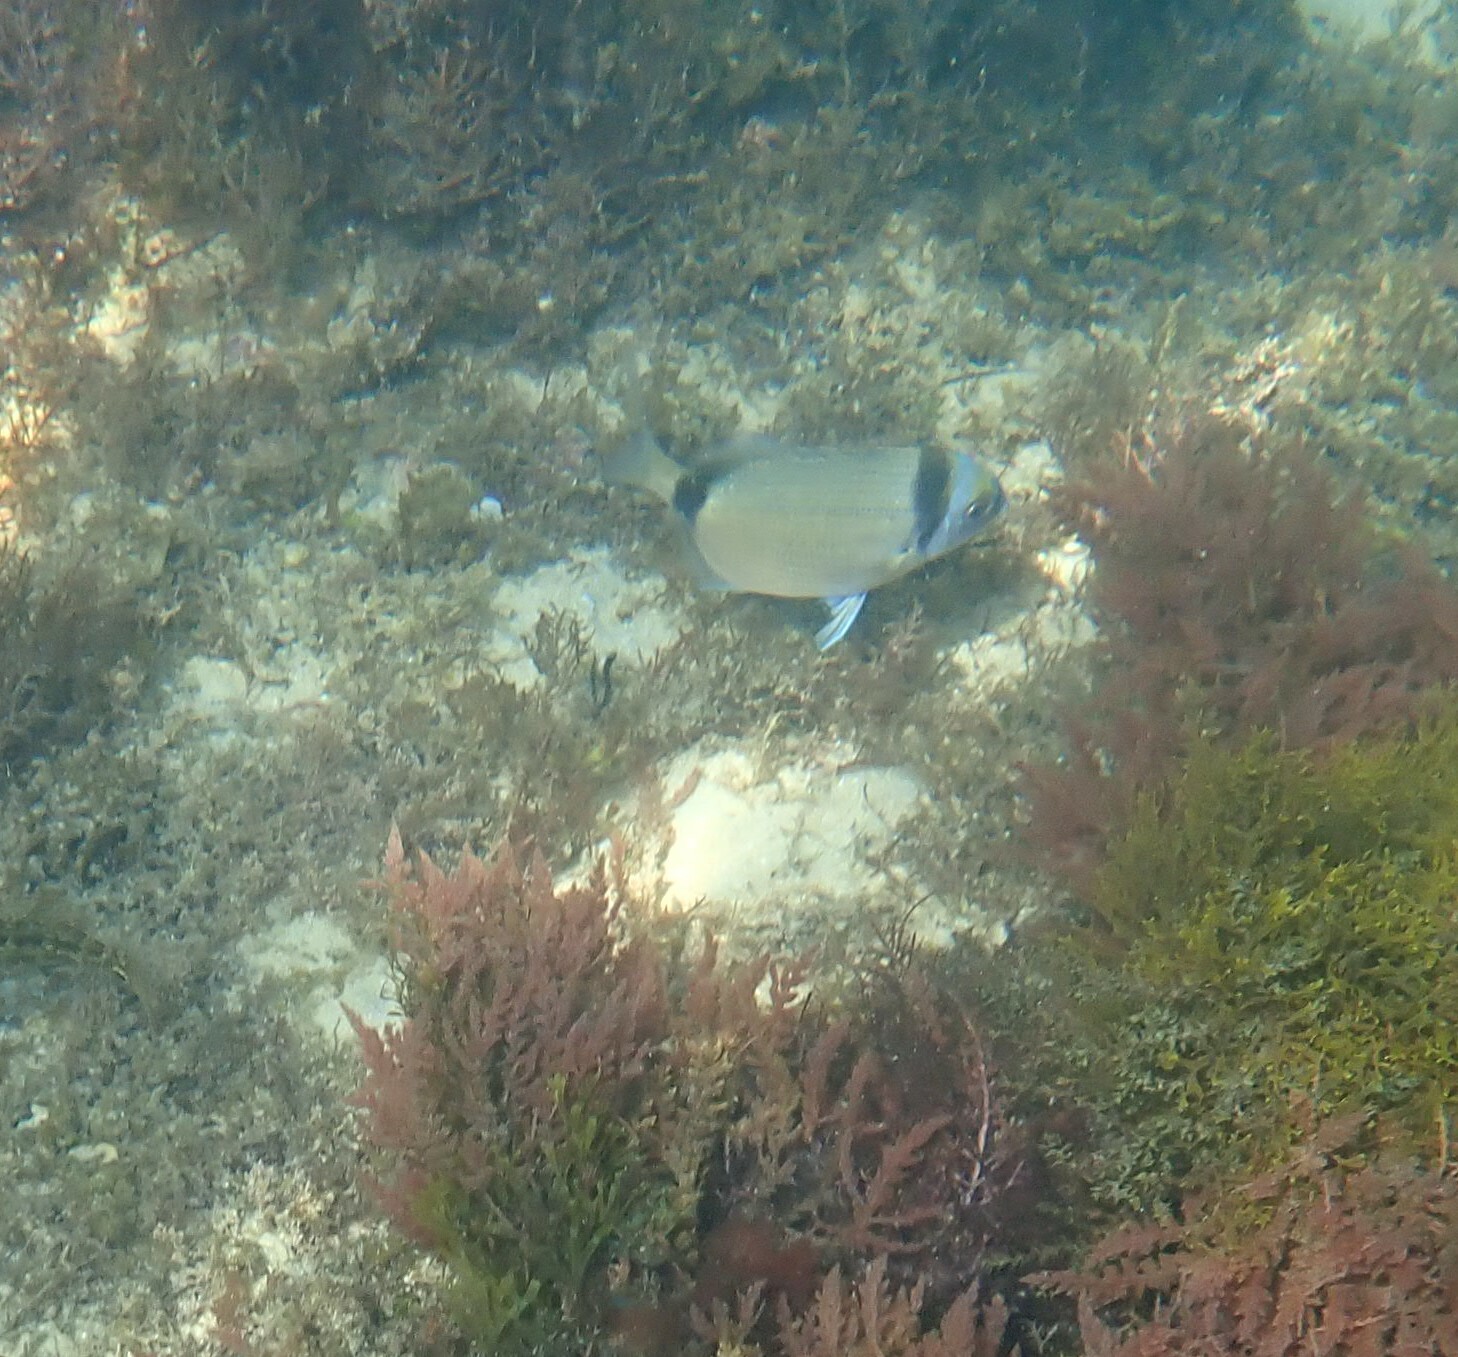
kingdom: Animalia
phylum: Chordata
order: Perciformes
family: Sparidae
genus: Diplodus
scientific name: Diplodus vulgaris
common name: Common two-banded seabream
